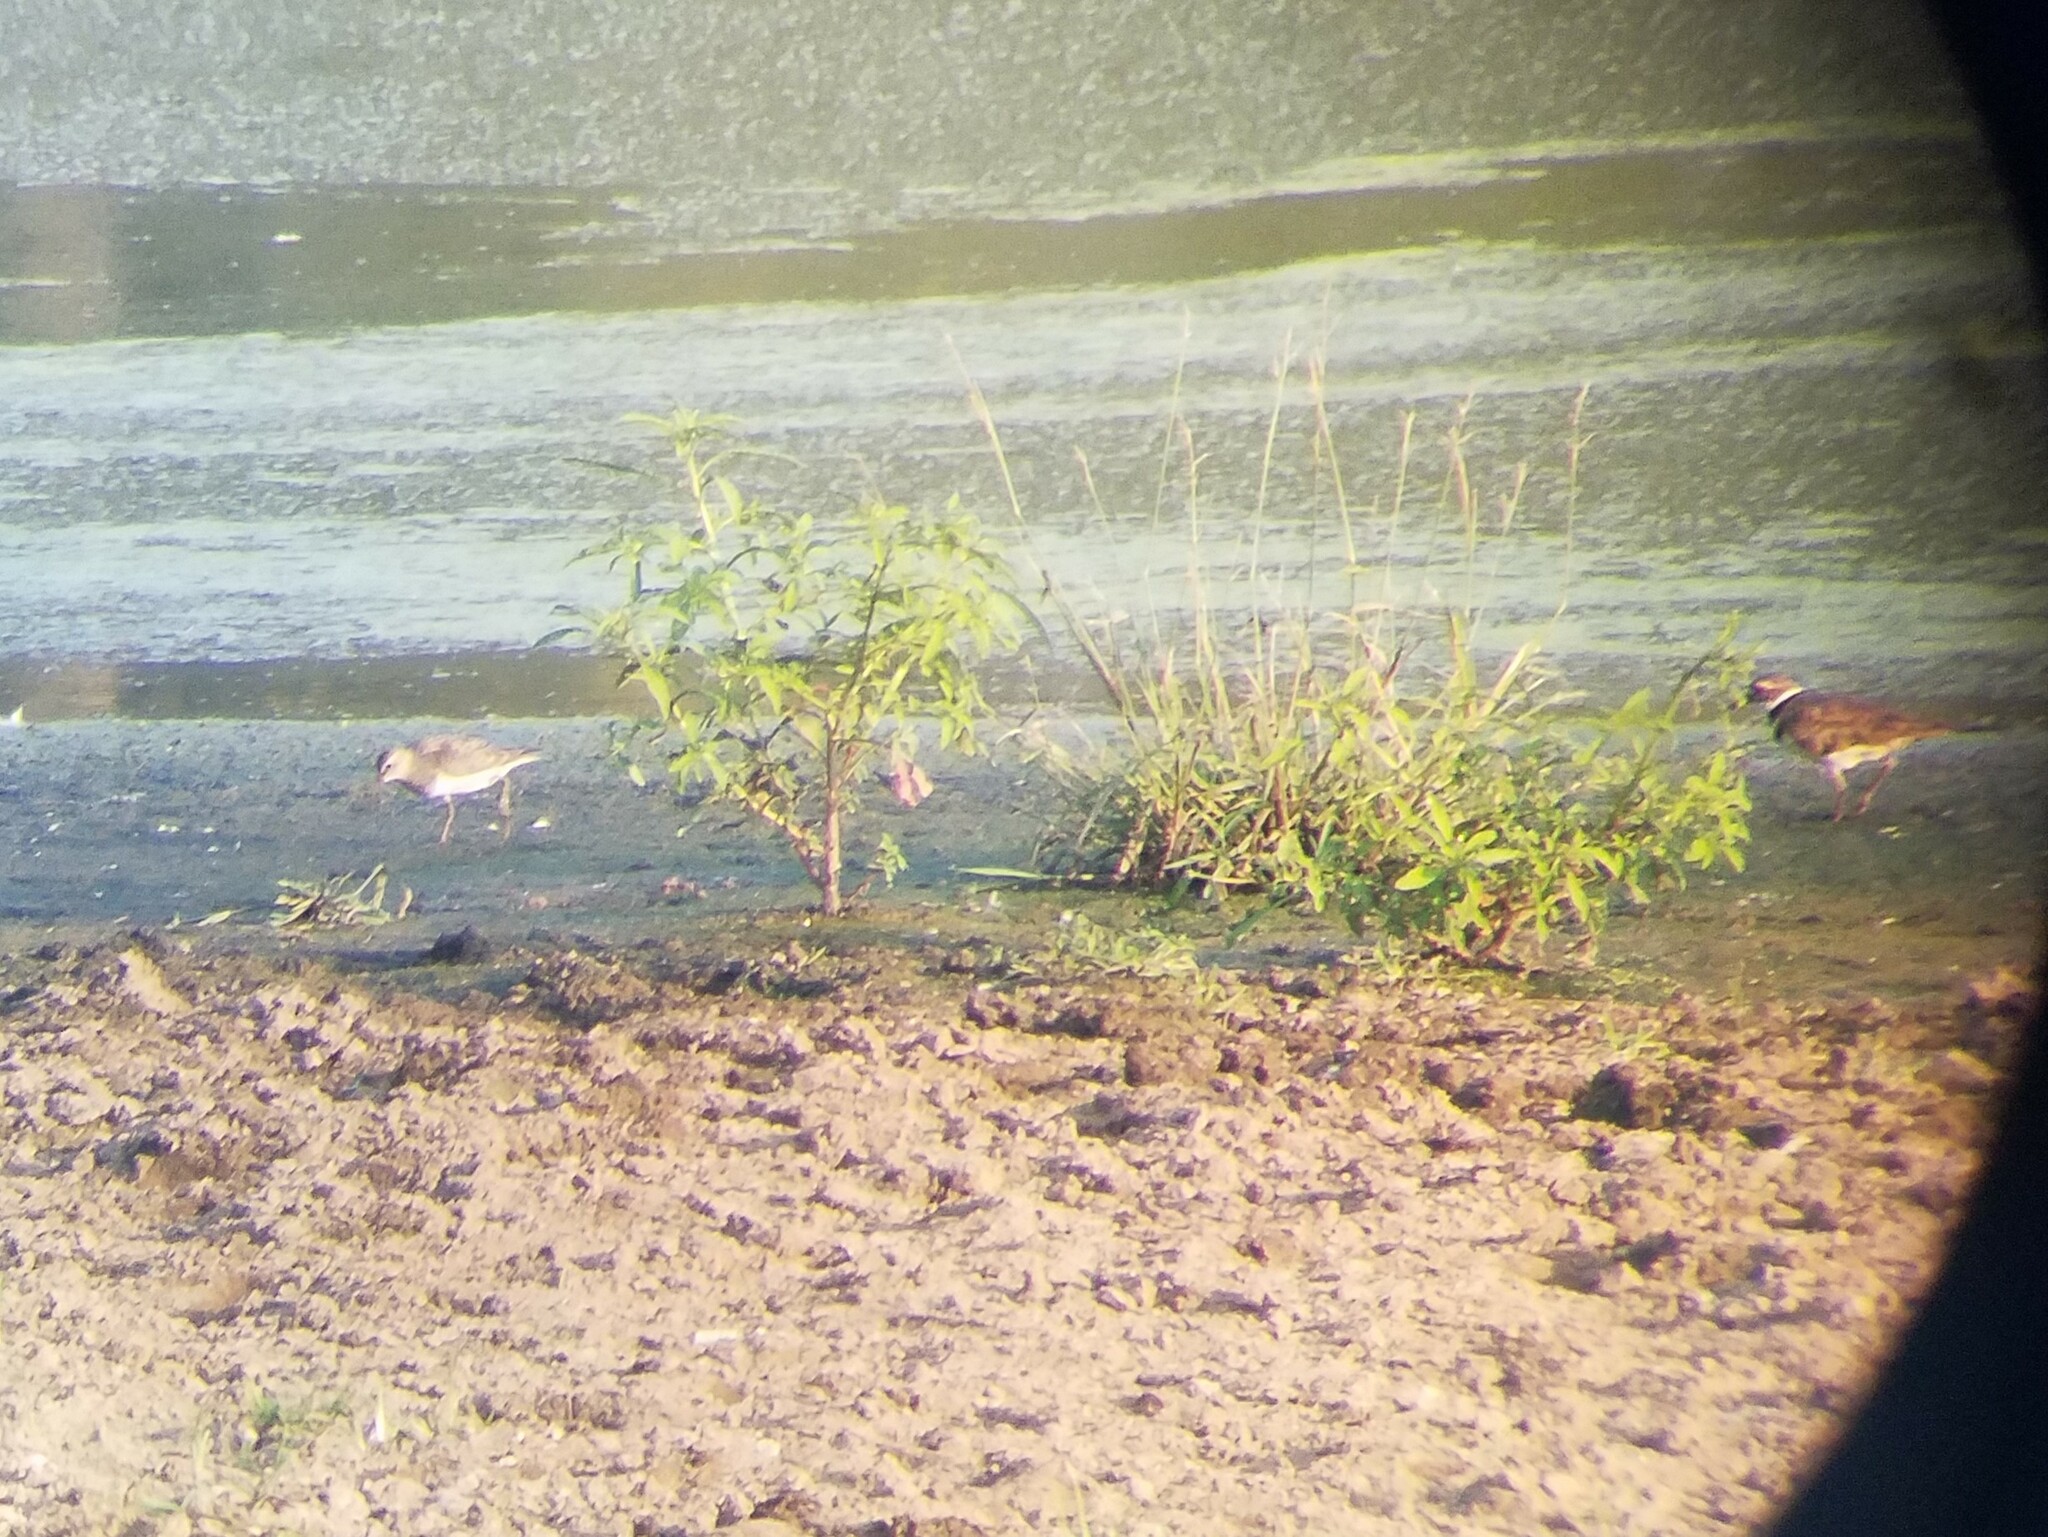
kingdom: Animalia
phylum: Chordata
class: Aves
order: Charadriiformes
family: Scolopacidae
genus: Calidris
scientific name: Calidris melanotos
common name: Pectoral sandpiper
